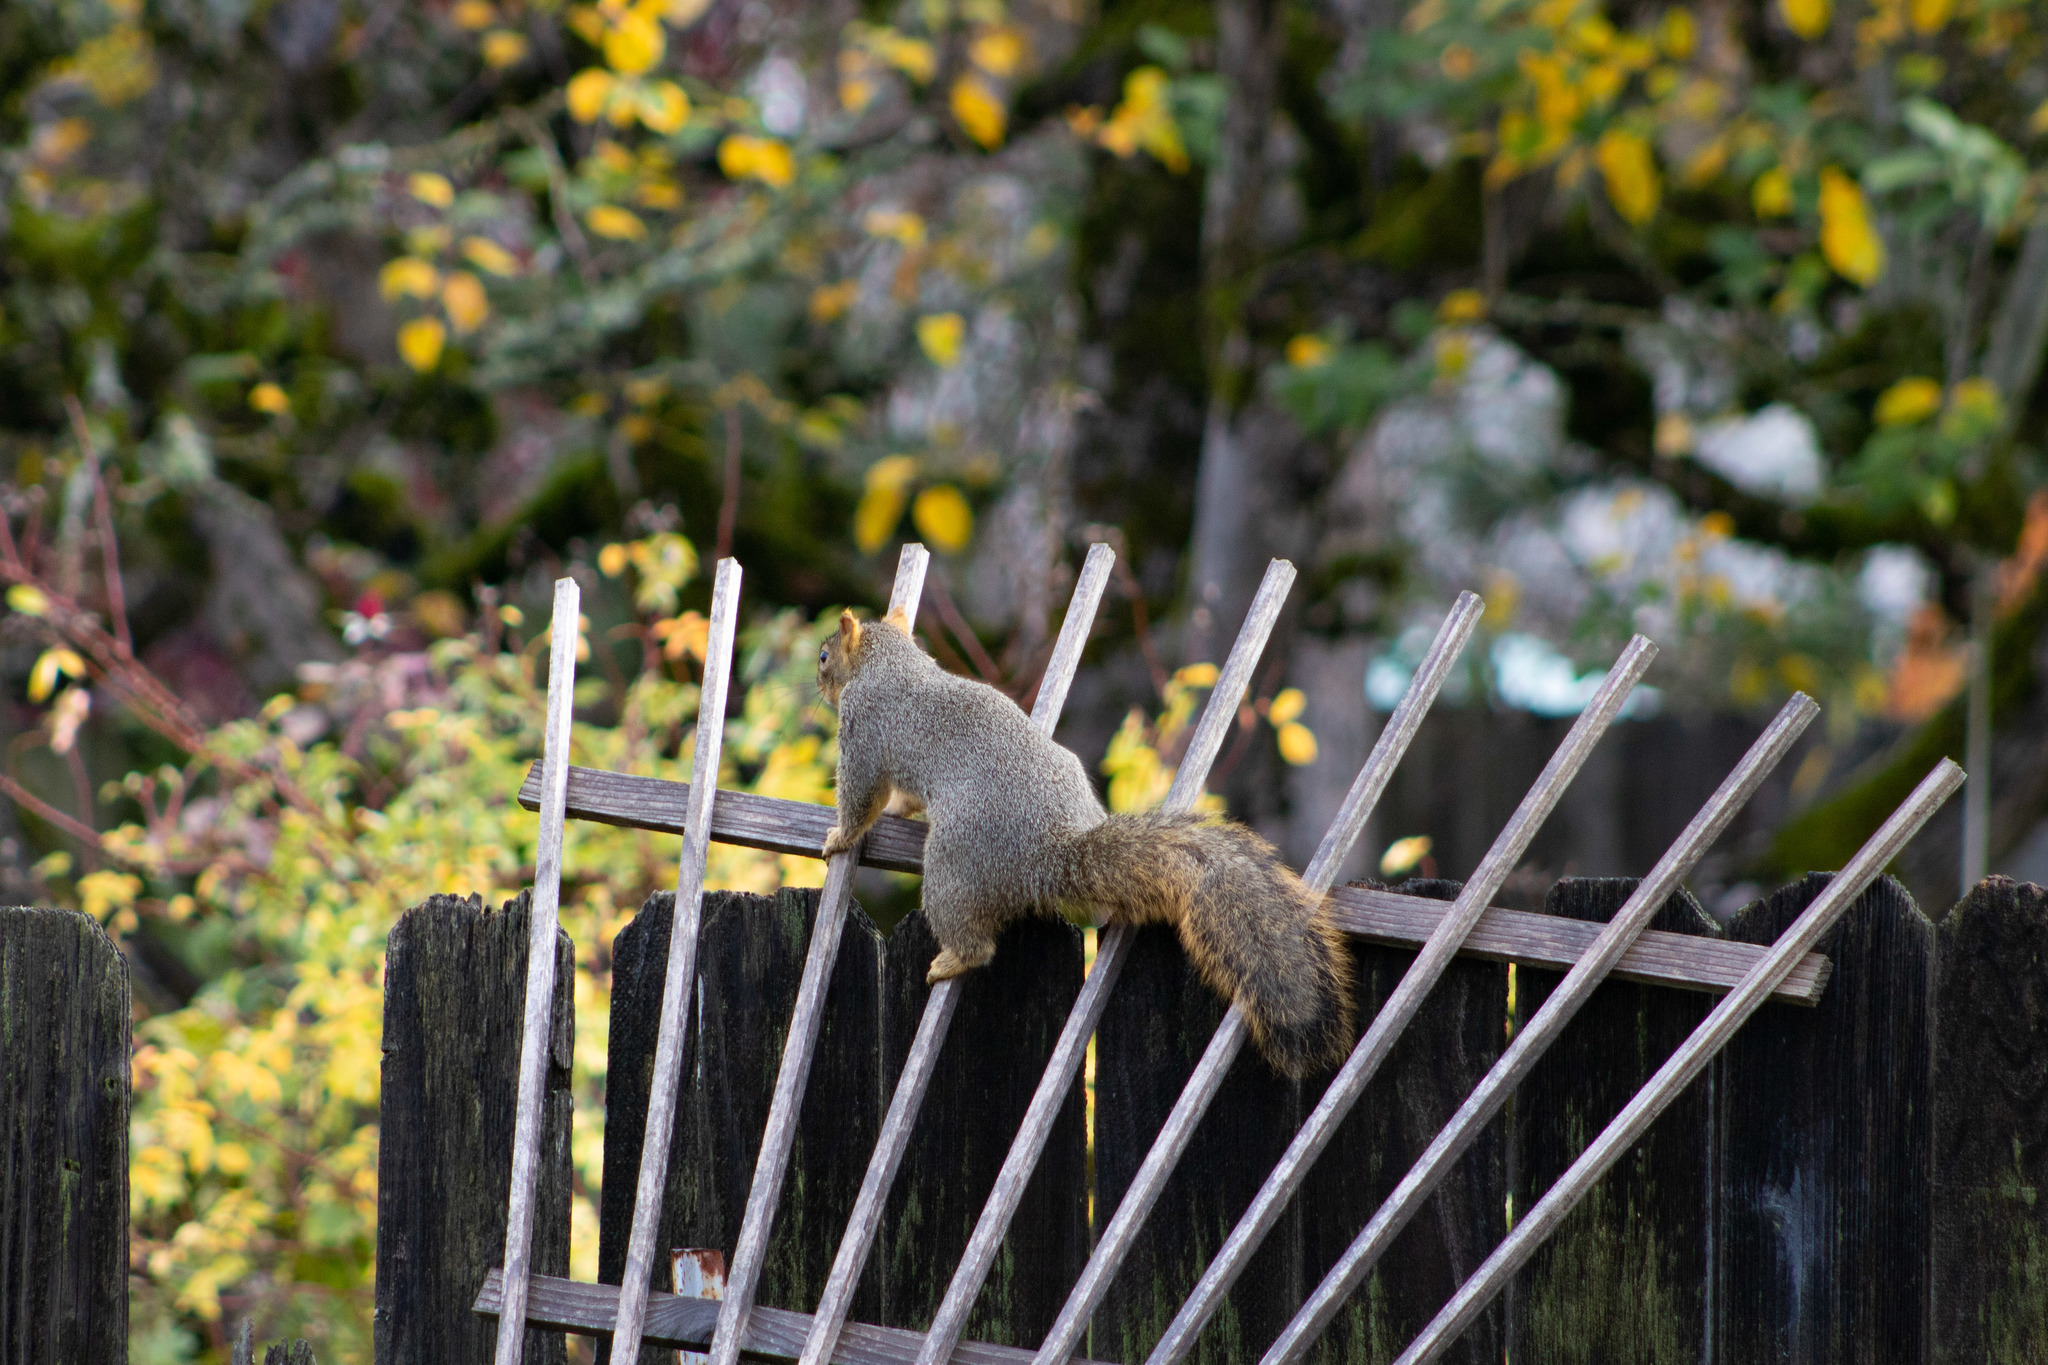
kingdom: Animalia
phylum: Chordata
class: Mammalia
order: Rodentia
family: Sciuridae
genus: Sciurus
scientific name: Sciurus niger
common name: Fox squirrel
